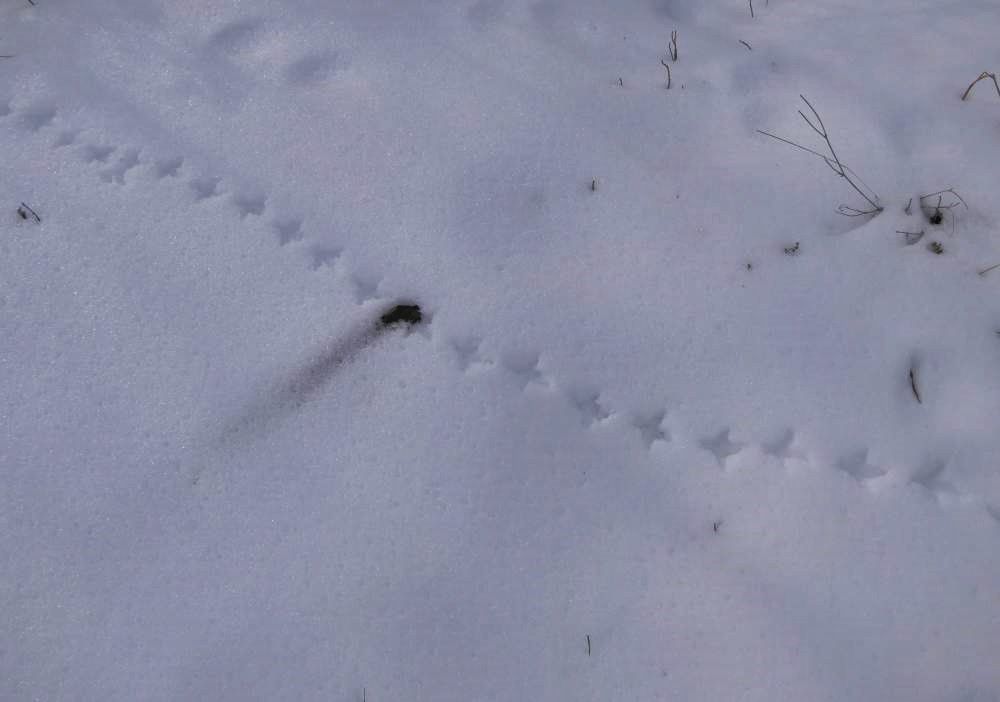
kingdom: Animalia
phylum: Chordata
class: Aves
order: Galliformes
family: Phasianidae
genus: Bonasa
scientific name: Bonasa umbellus
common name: Ruffed grouse
